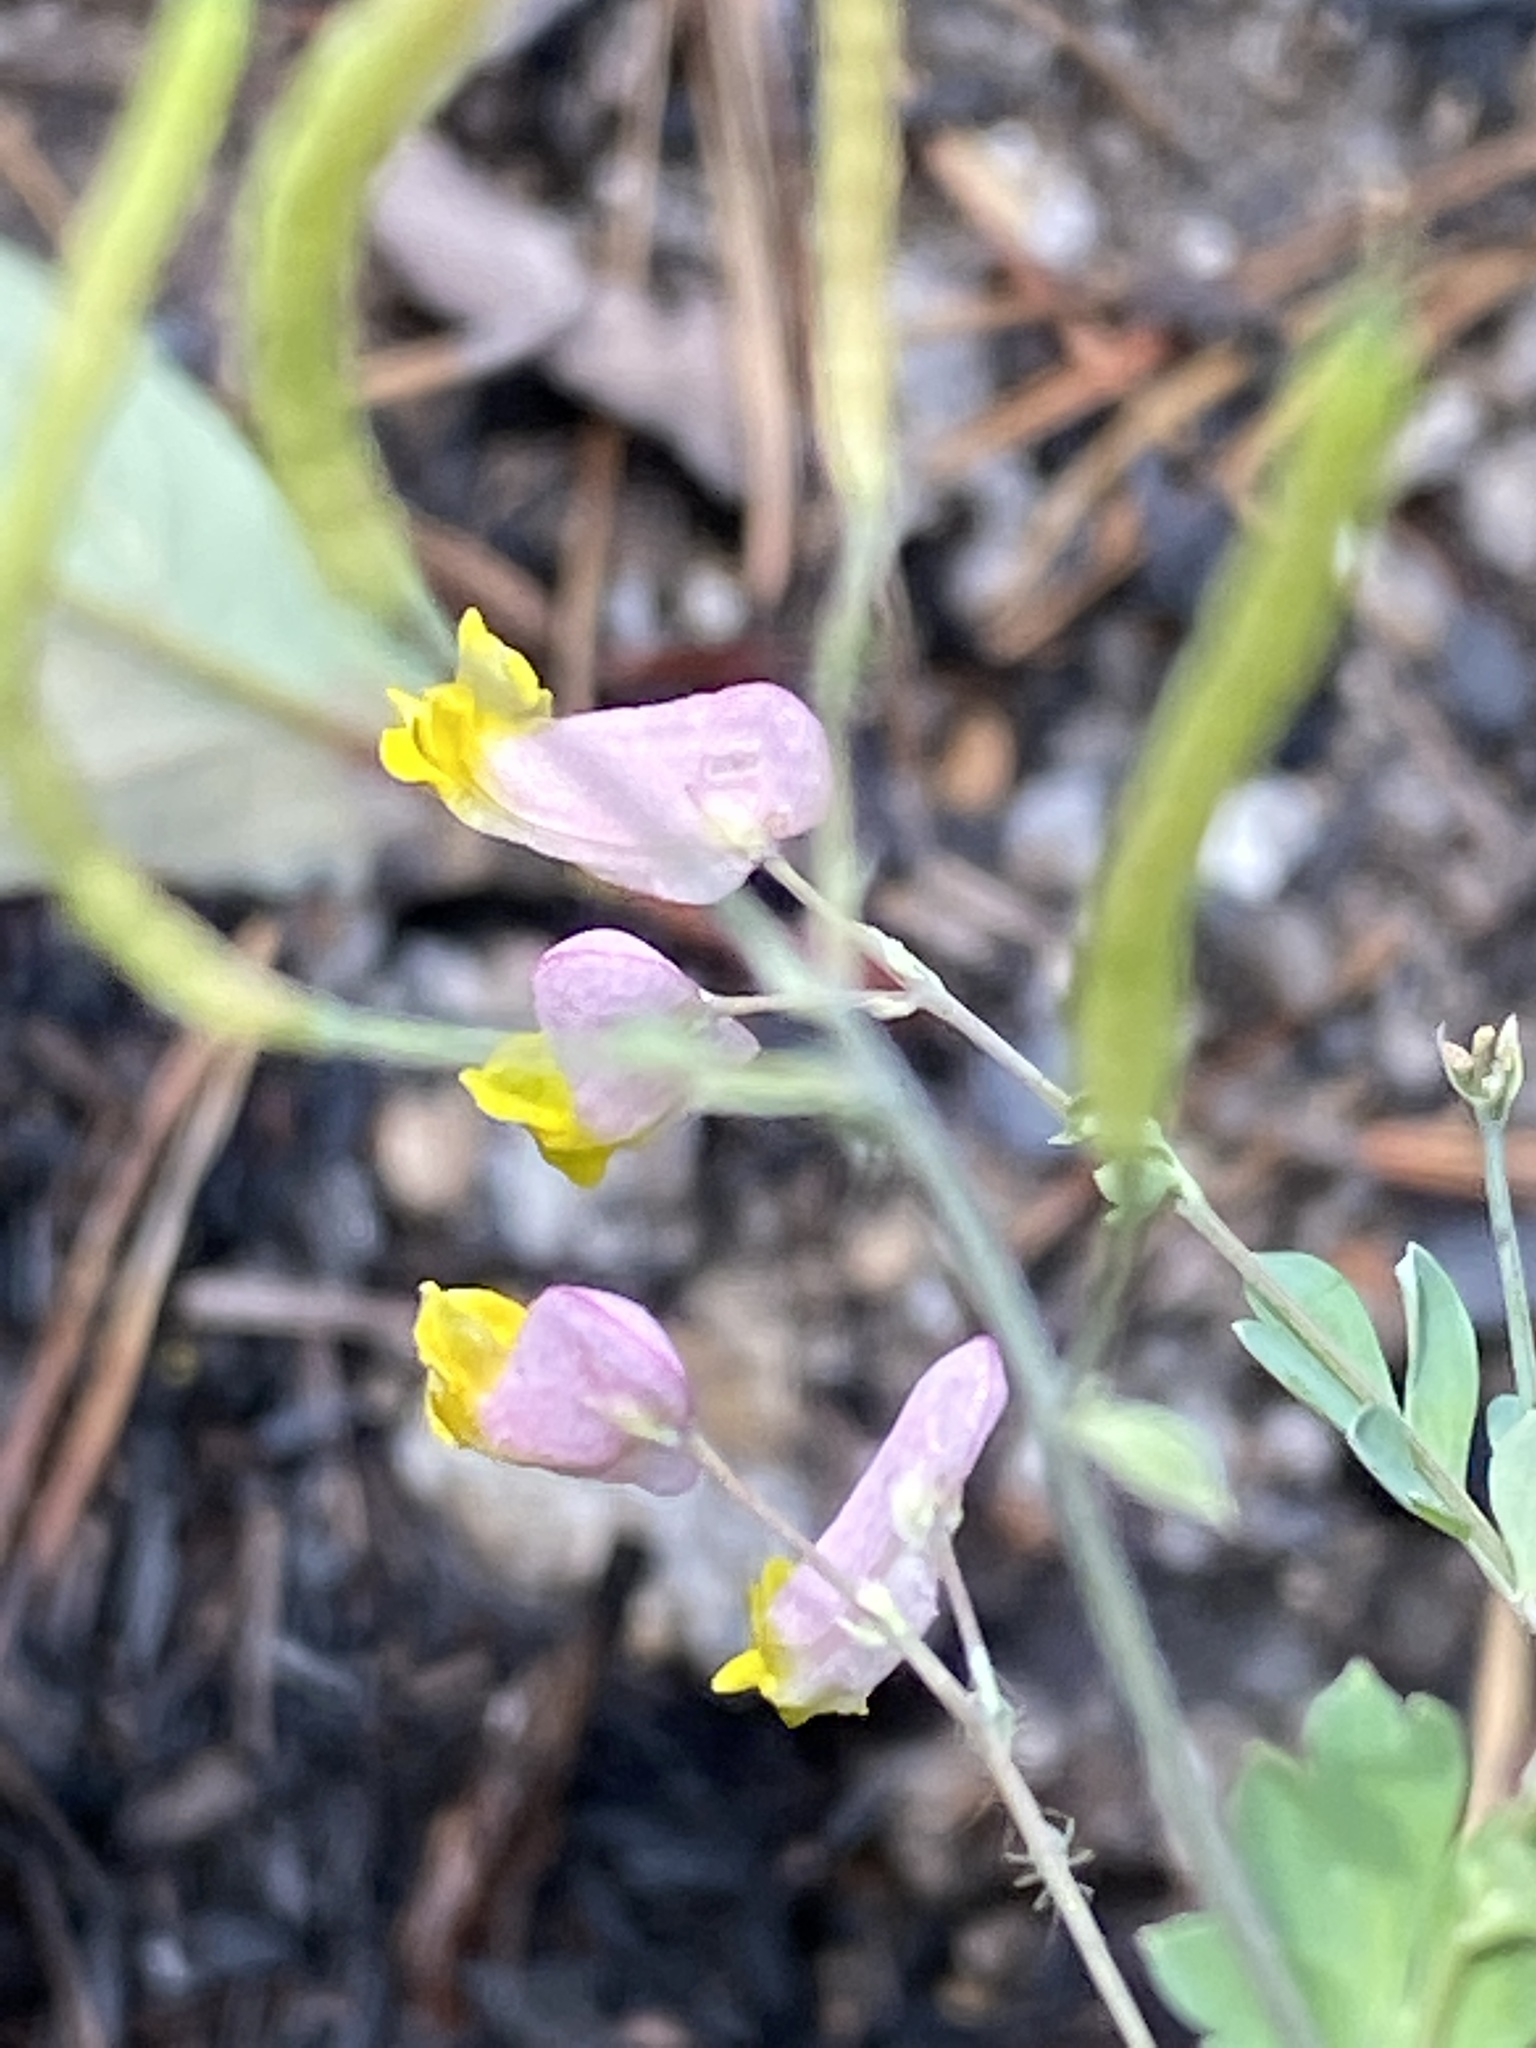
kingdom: Plantae
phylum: Tracheophyta
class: Magnoliopsida
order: Ranunculales
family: Papaveraceae
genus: Capnoides
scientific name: Capnoides sempervirens
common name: Rock harlequin
